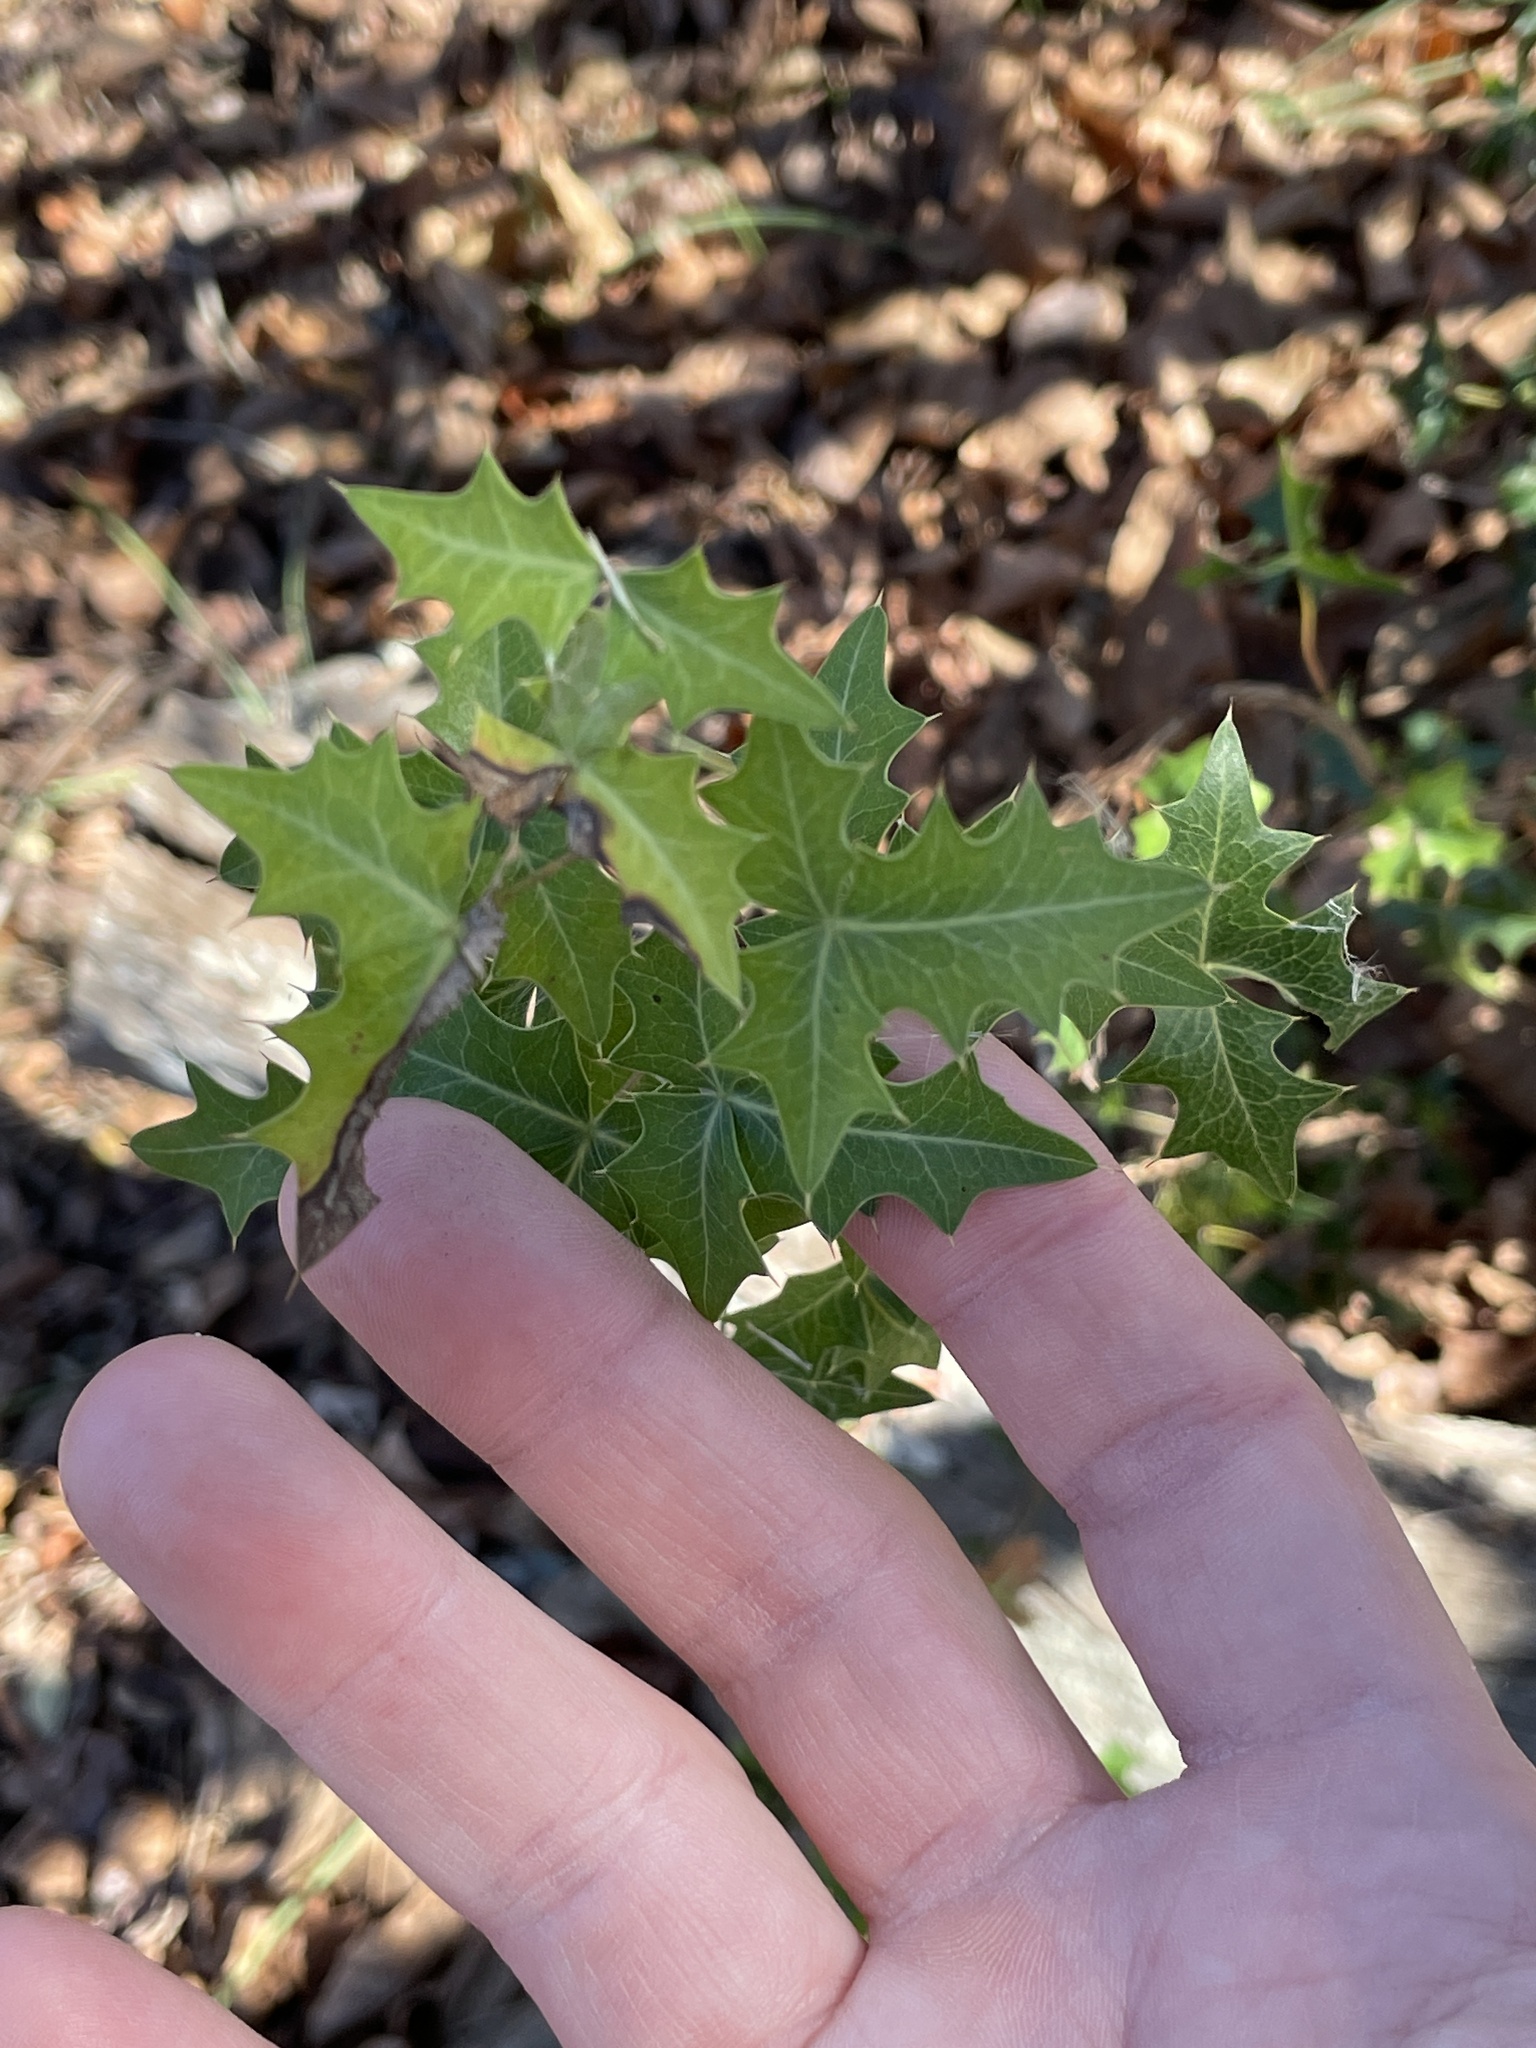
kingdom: Plantae
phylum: Tracheophyta
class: Magnoliopsida
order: Ranunculales
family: Berberidaceae
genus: Alloberberis
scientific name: Alloberberis trifoliolata
